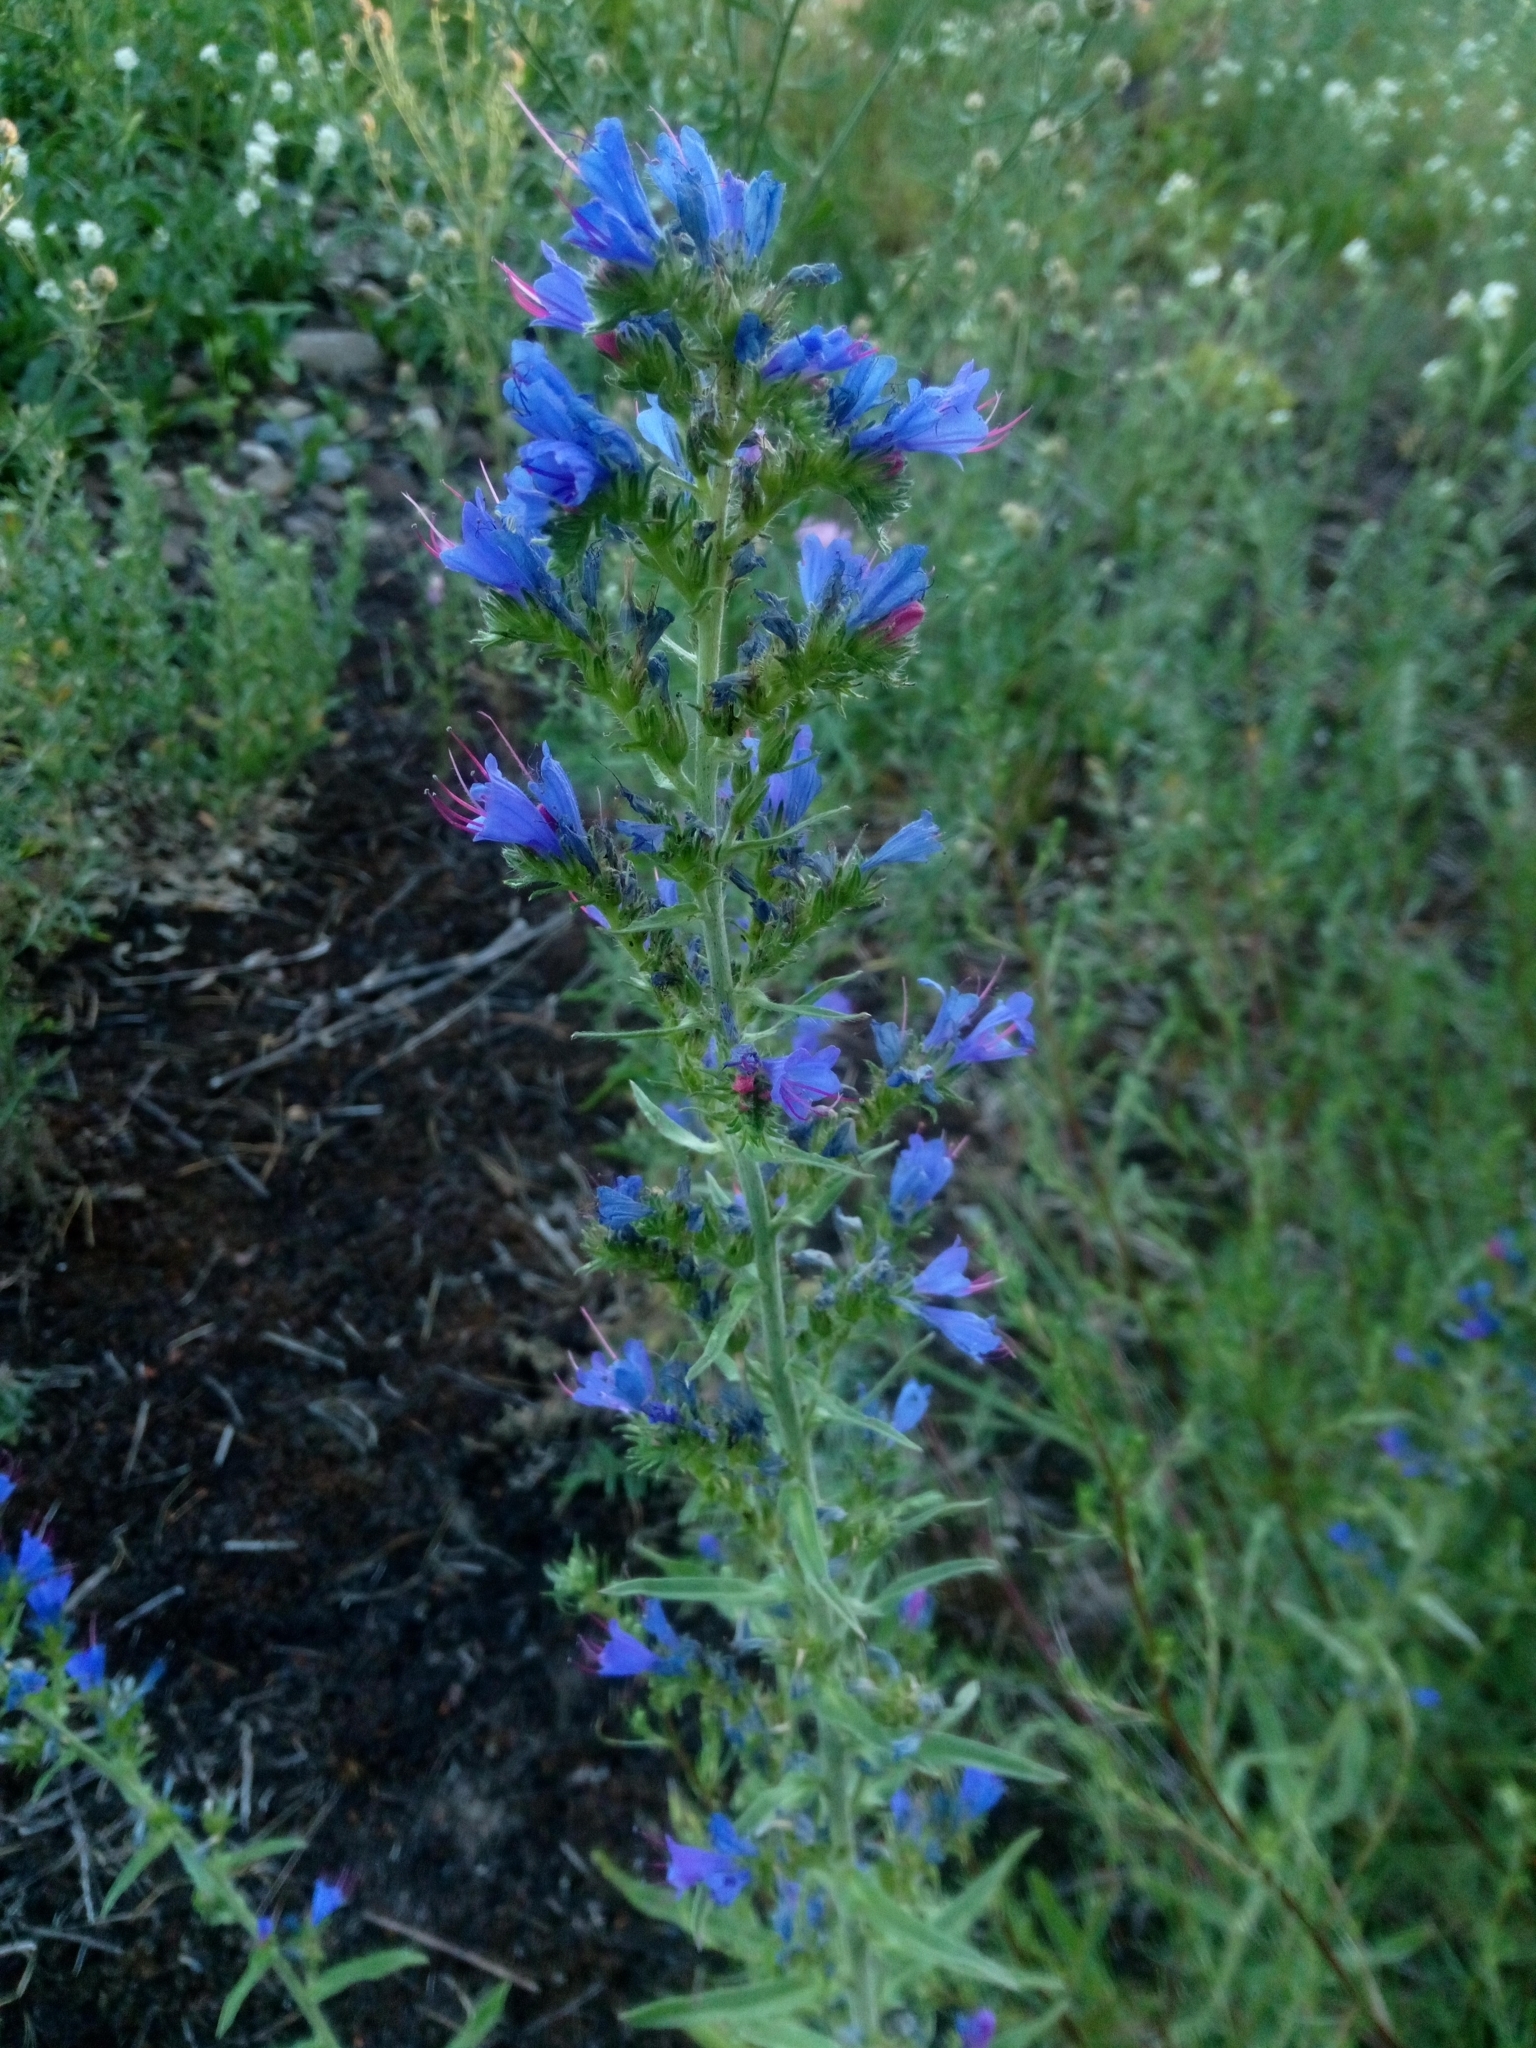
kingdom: Plantae
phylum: Tracheophyta
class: Magnoliopsida
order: Boraginales
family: Boraginaceae
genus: Echium
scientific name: Echium vulgare
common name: Common viper's bugloss
